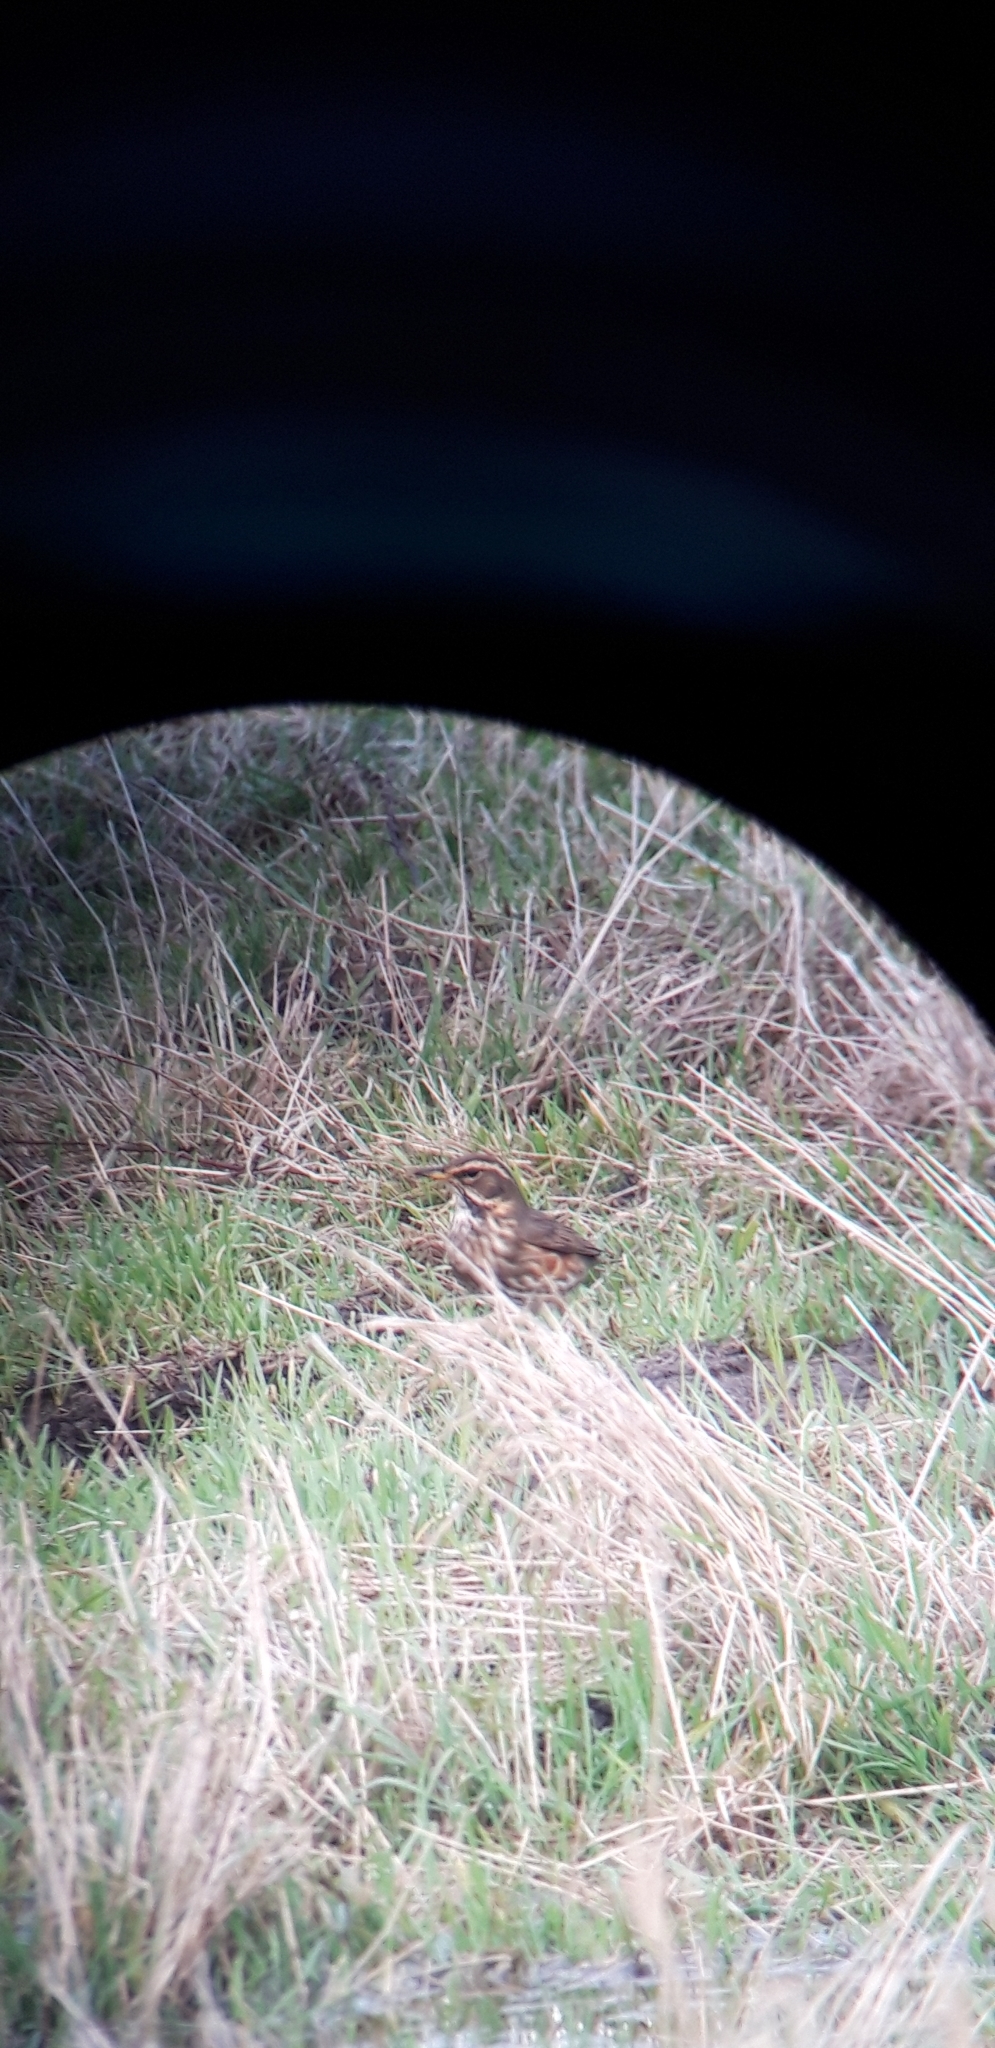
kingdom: Animalia
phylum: Chordata
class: Aves
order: Passeriformes
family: Turdidae
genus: Turdus
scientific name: Turdus iliacus
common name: Redwing
